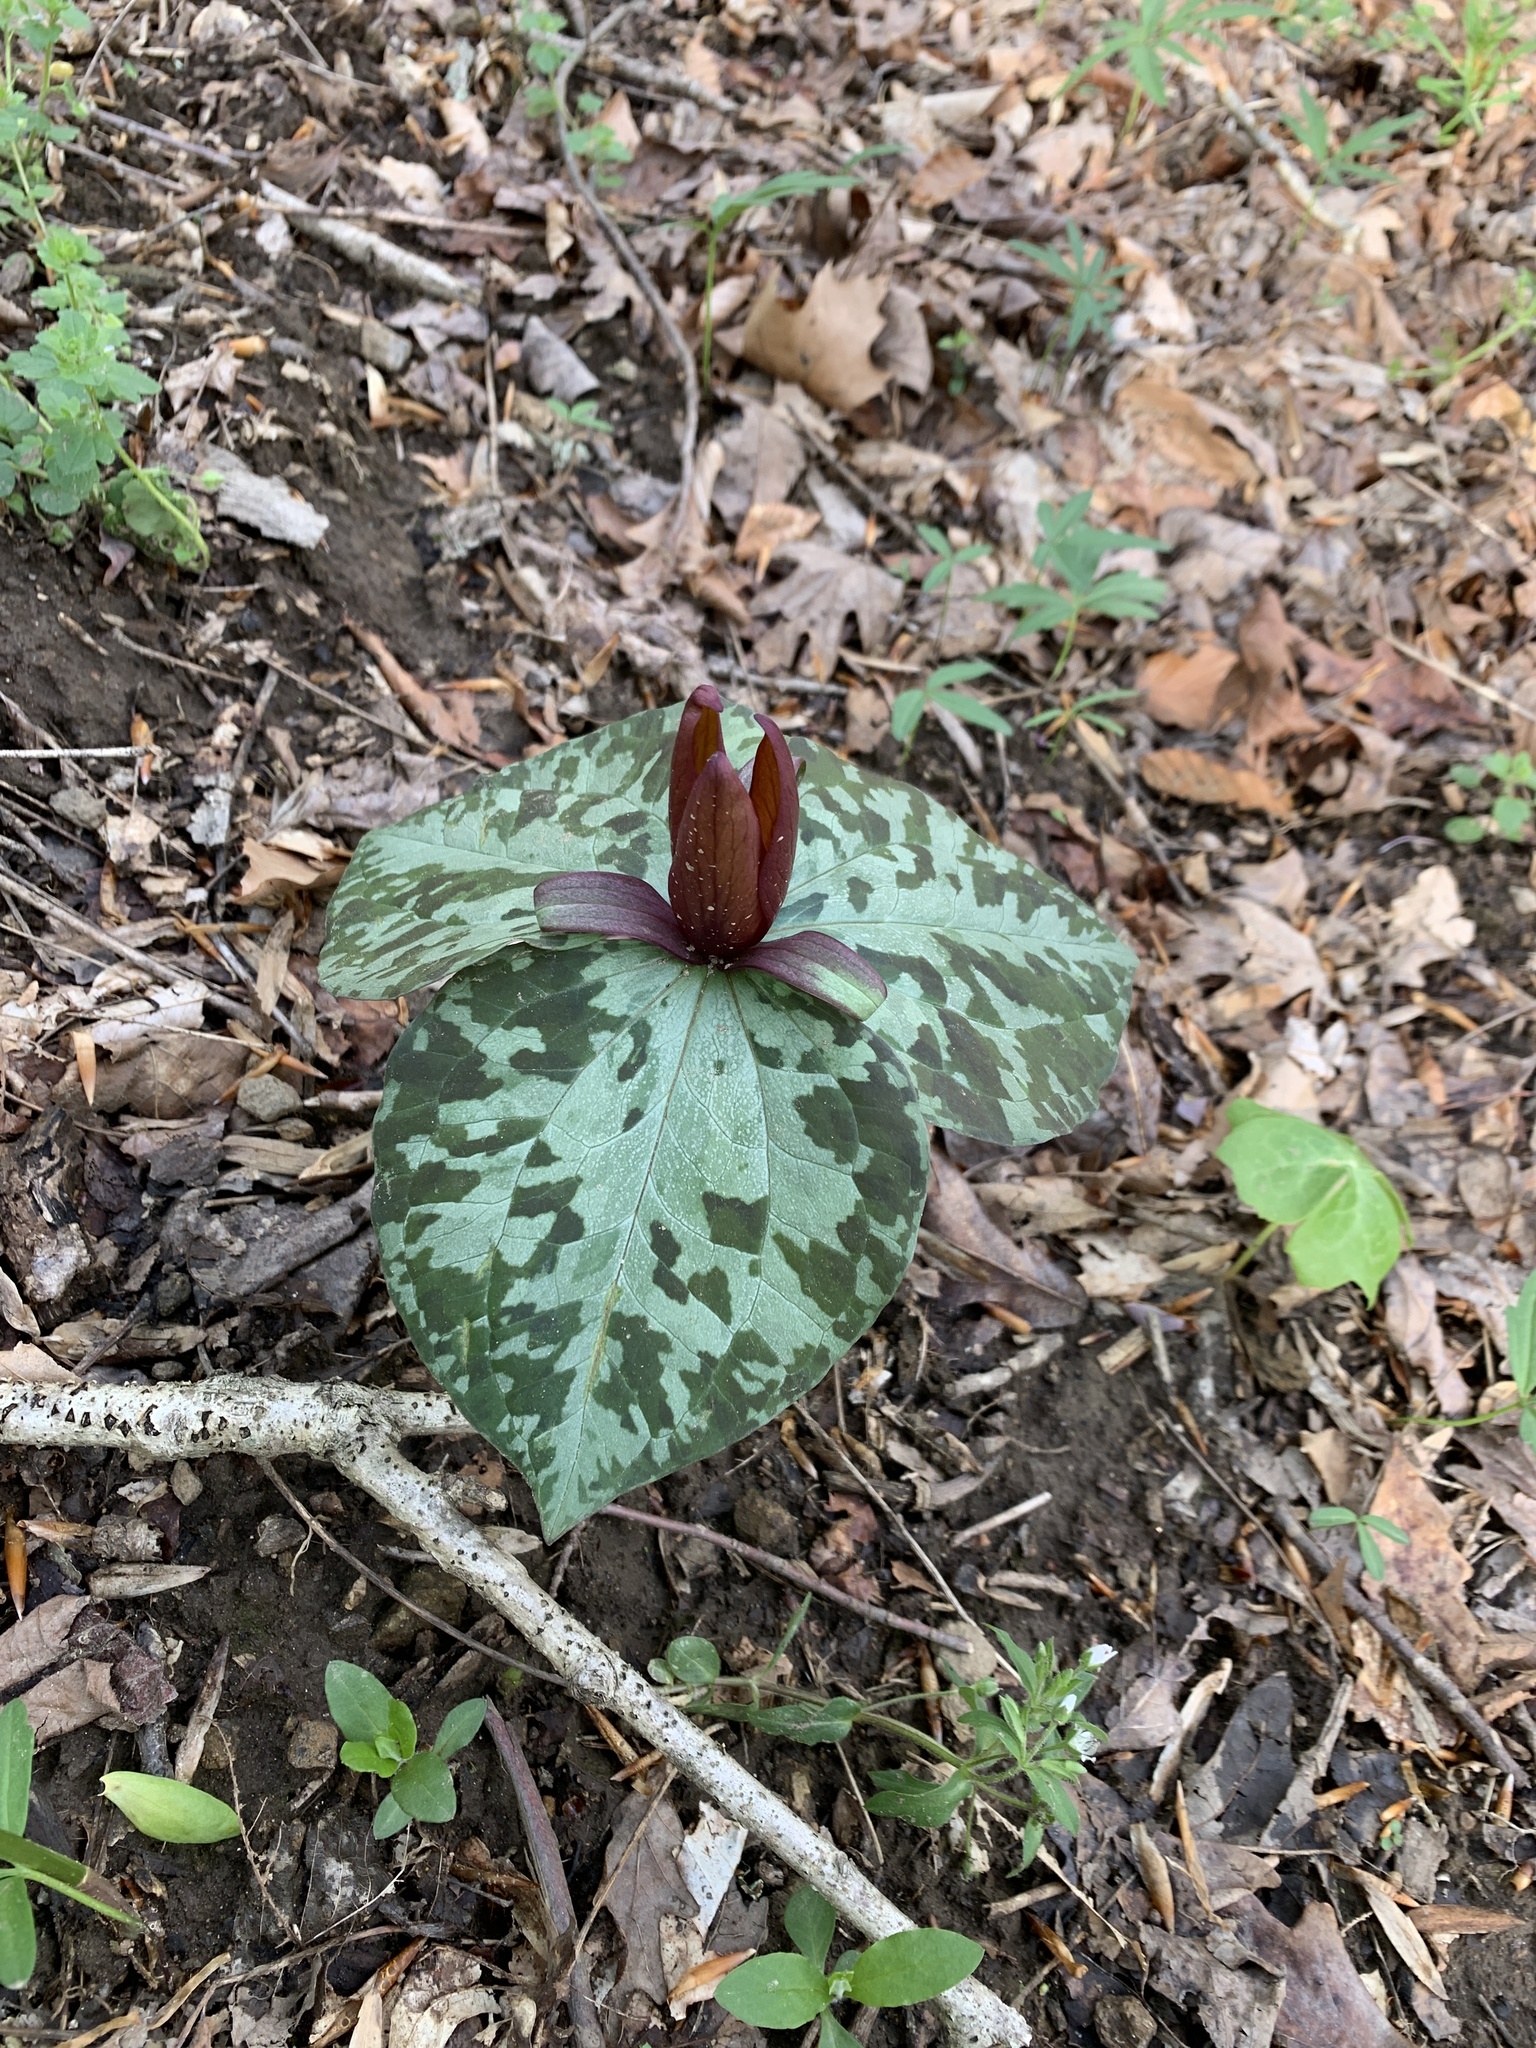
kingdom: Plantae
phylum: Tracheophyta
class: Liliopsida
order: Liliales
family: Melanthiaceae
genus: Trillium
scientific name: Trillium cuneatum
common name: Cuneate trillium
